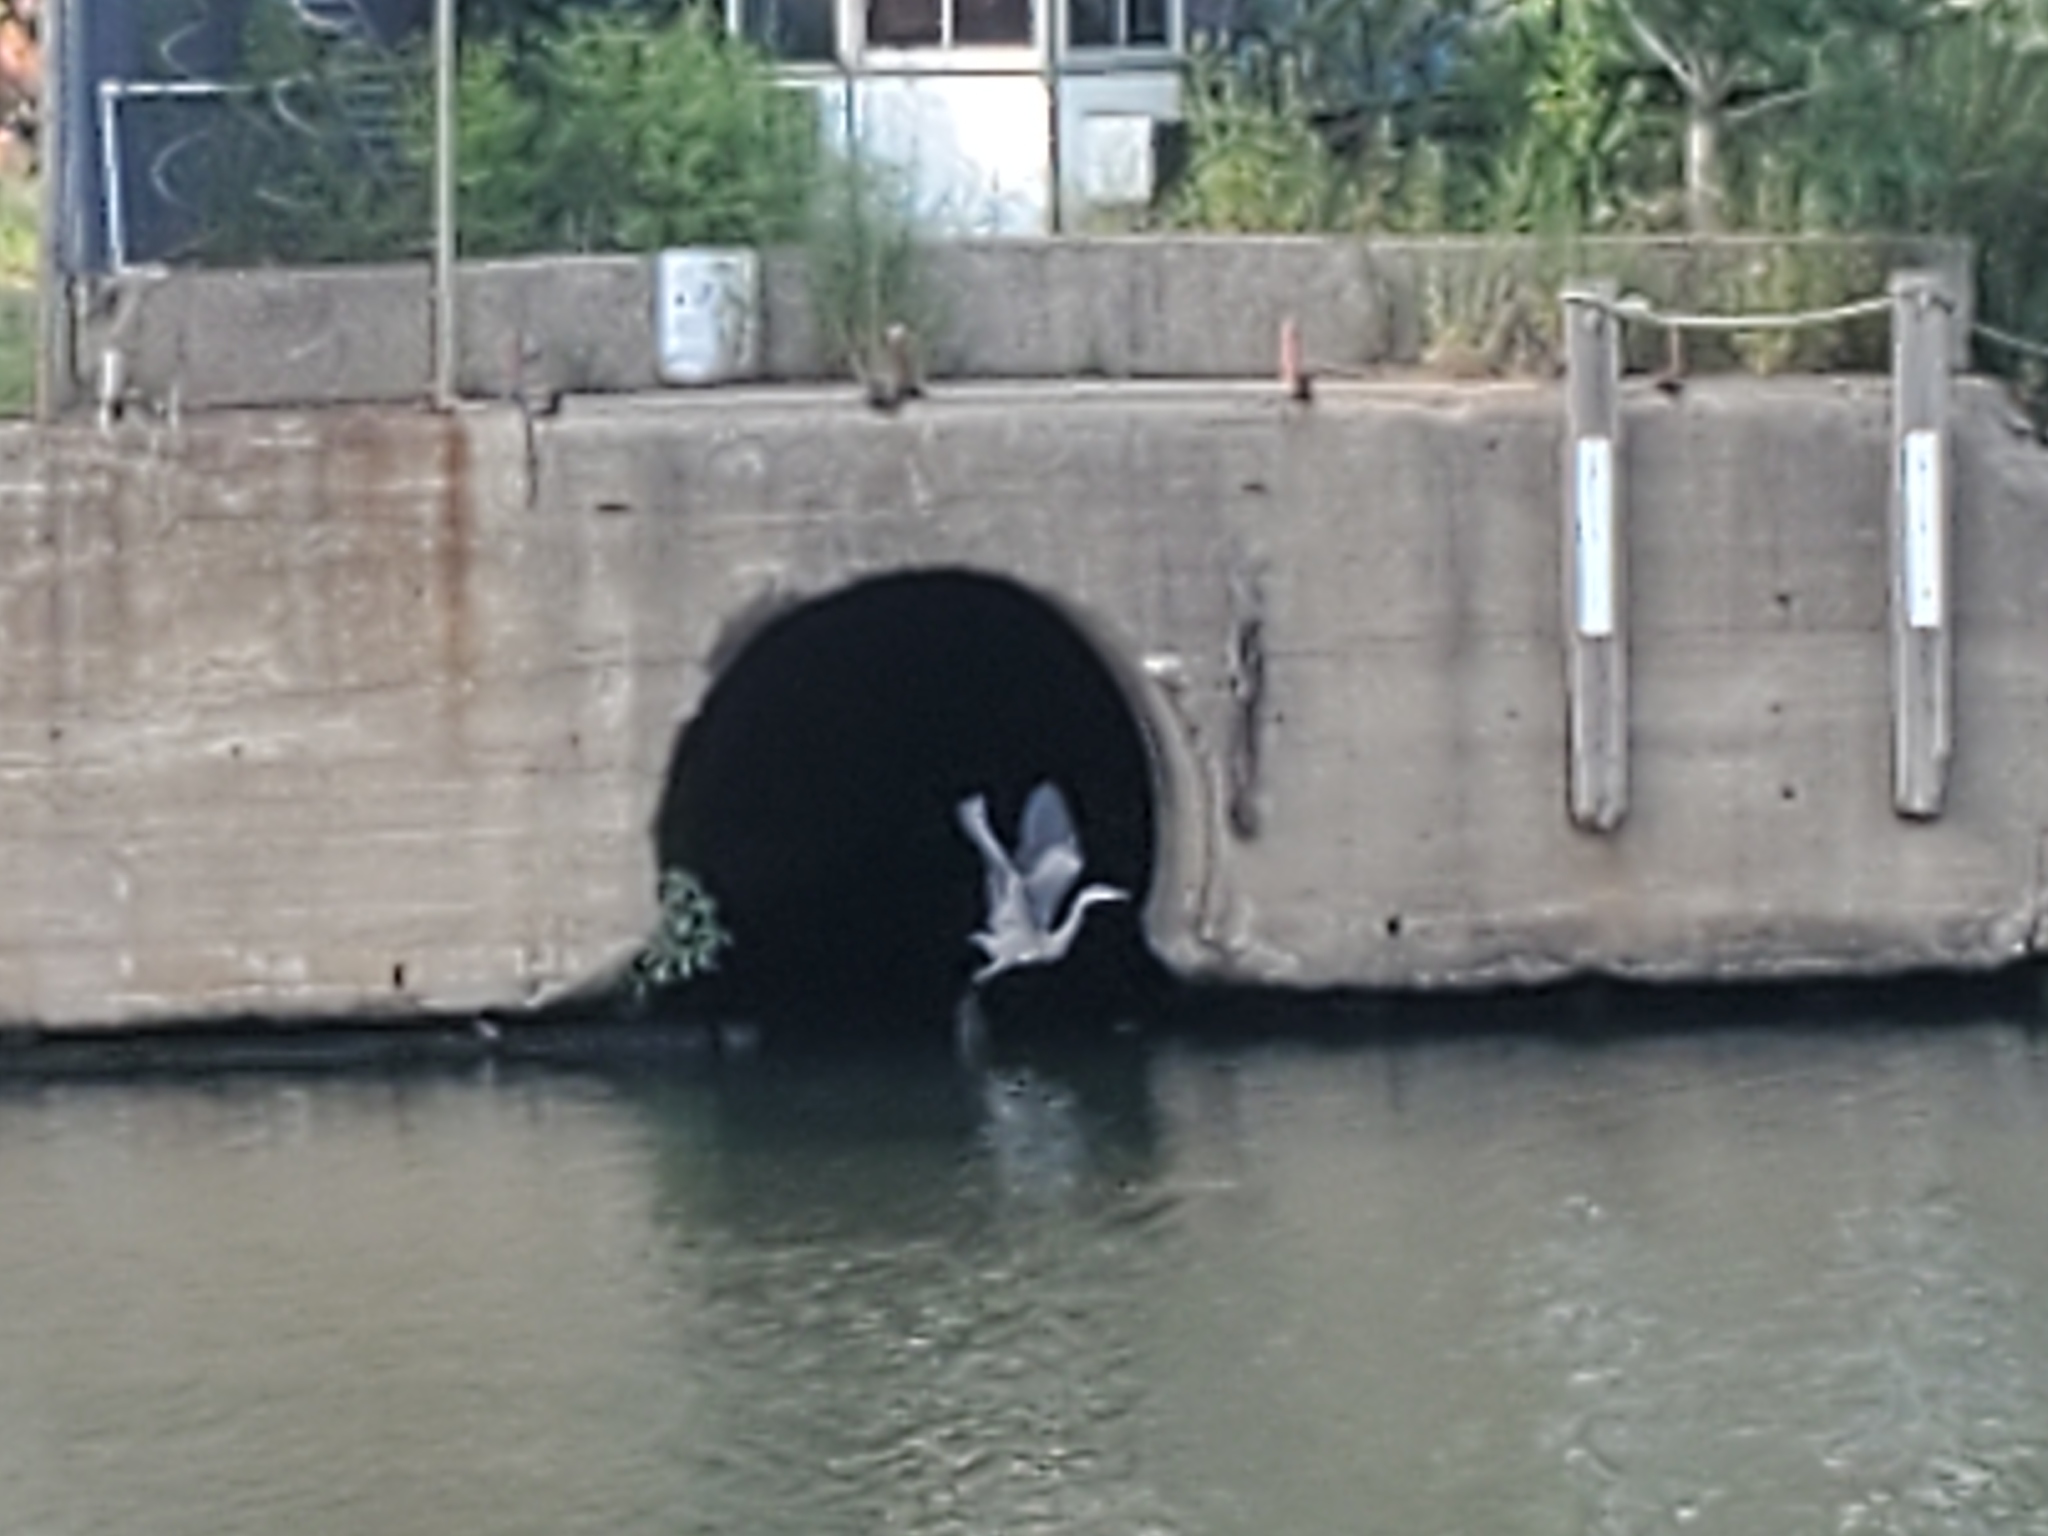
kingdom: Animalia
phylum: Chordata
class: Aves
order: Pelecaniformes
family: Ardeidae
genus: Ardea
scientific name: Ardea herodias
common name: Great blue heron
